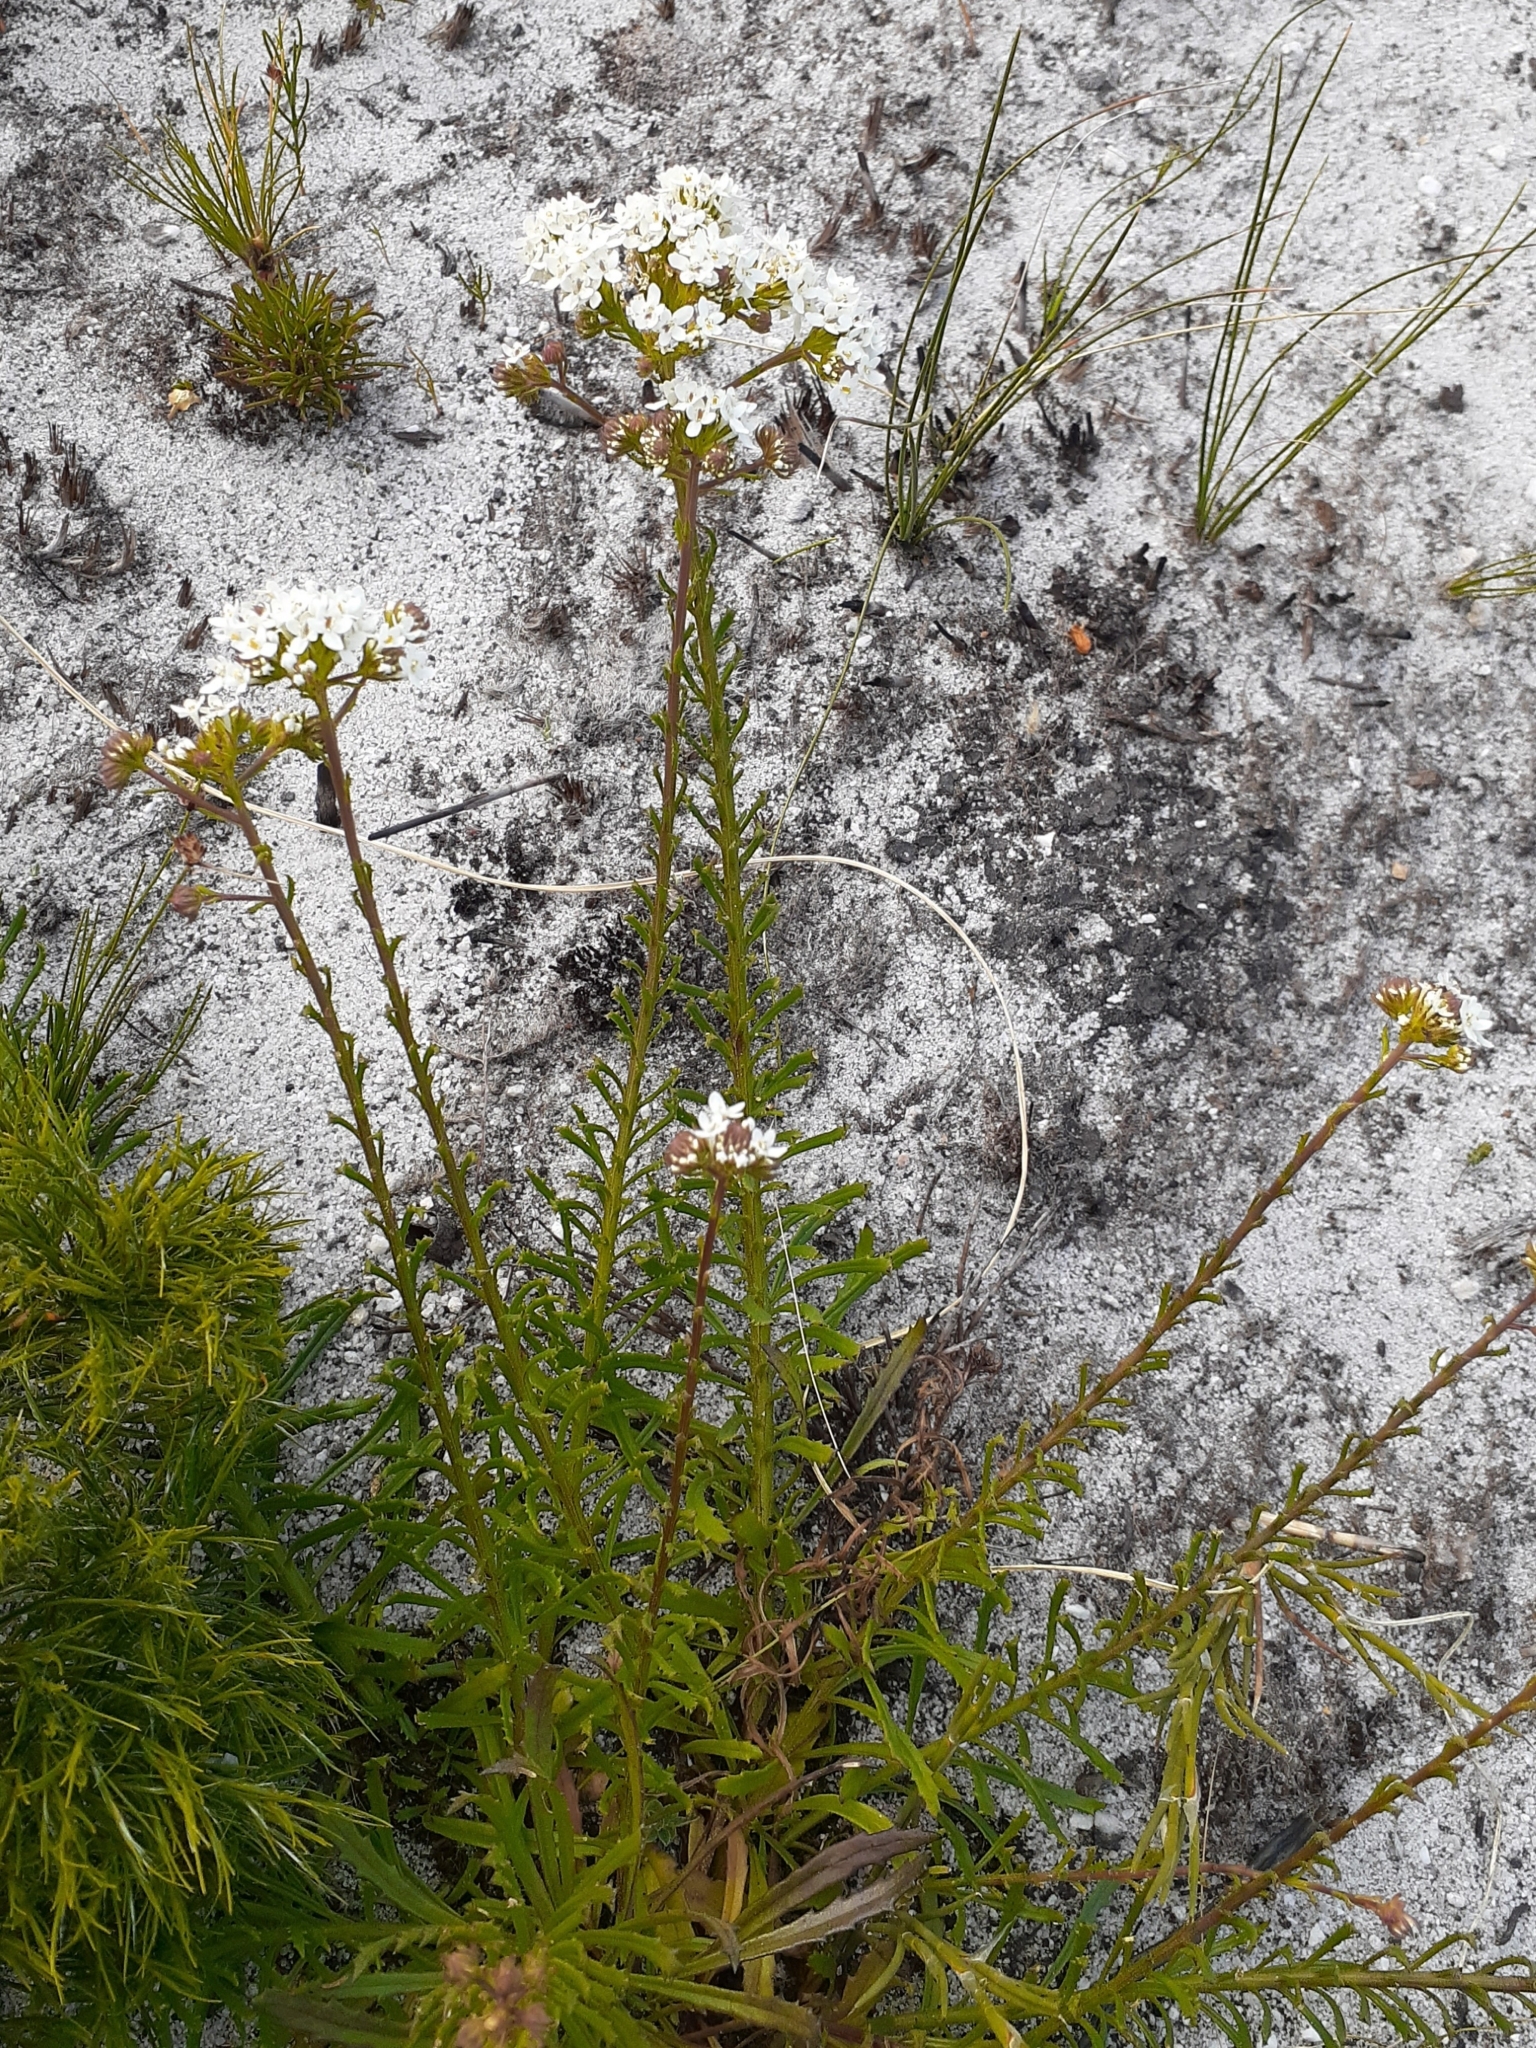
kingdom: Plantae
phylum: Tracheophyta
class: Magnoliopsida
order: Lamiales
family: Scrophulariaceae
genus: Pseudoselago
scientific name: Pseudoselago spuria
